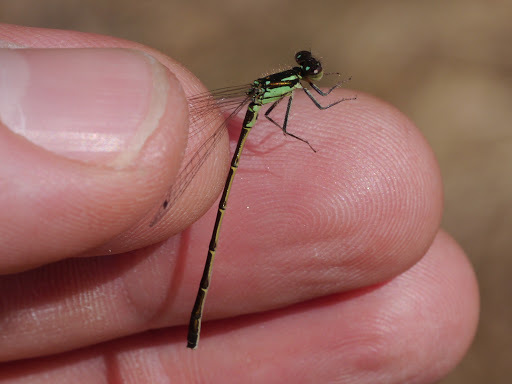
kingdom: Animalia
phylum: Arthropoda
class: Insecta
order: Odonata
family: Coenagrionidae
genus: Ischnura
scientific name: Ischnura posita
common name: Fragile forktail
